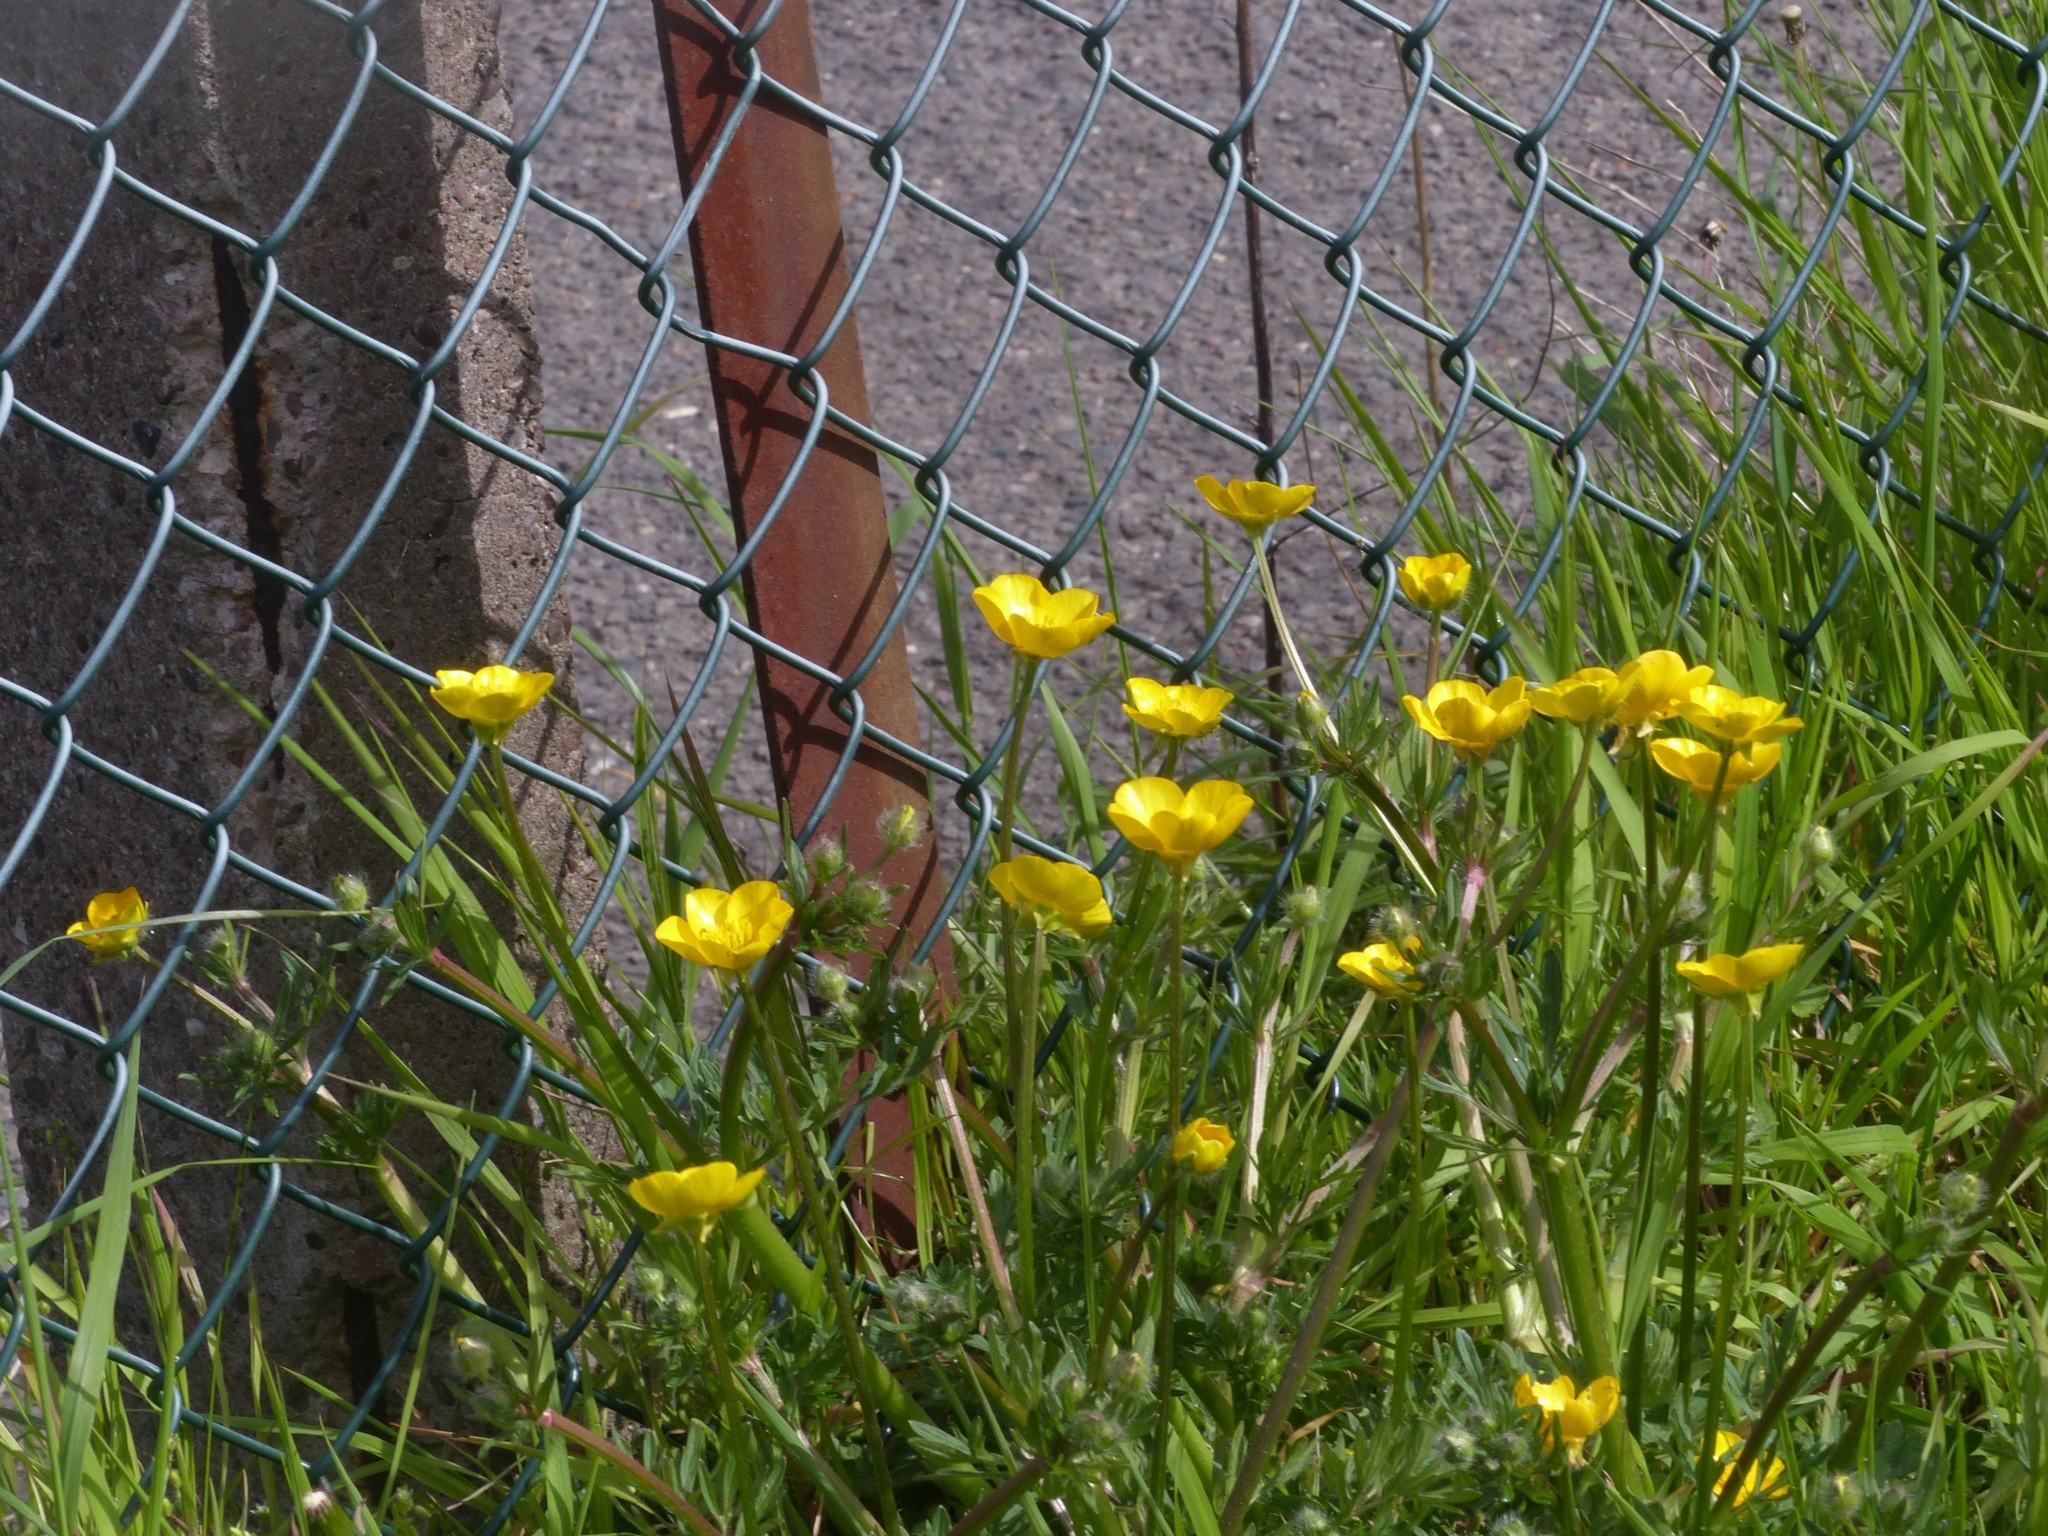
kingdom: Plantae
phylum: Tracheophyta
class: Magnoliopsida
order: Ranunculales
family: Ranunculaceae
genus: Ranunculus
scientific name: Ranunculus bulbosus
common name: Bulbous buttercup
